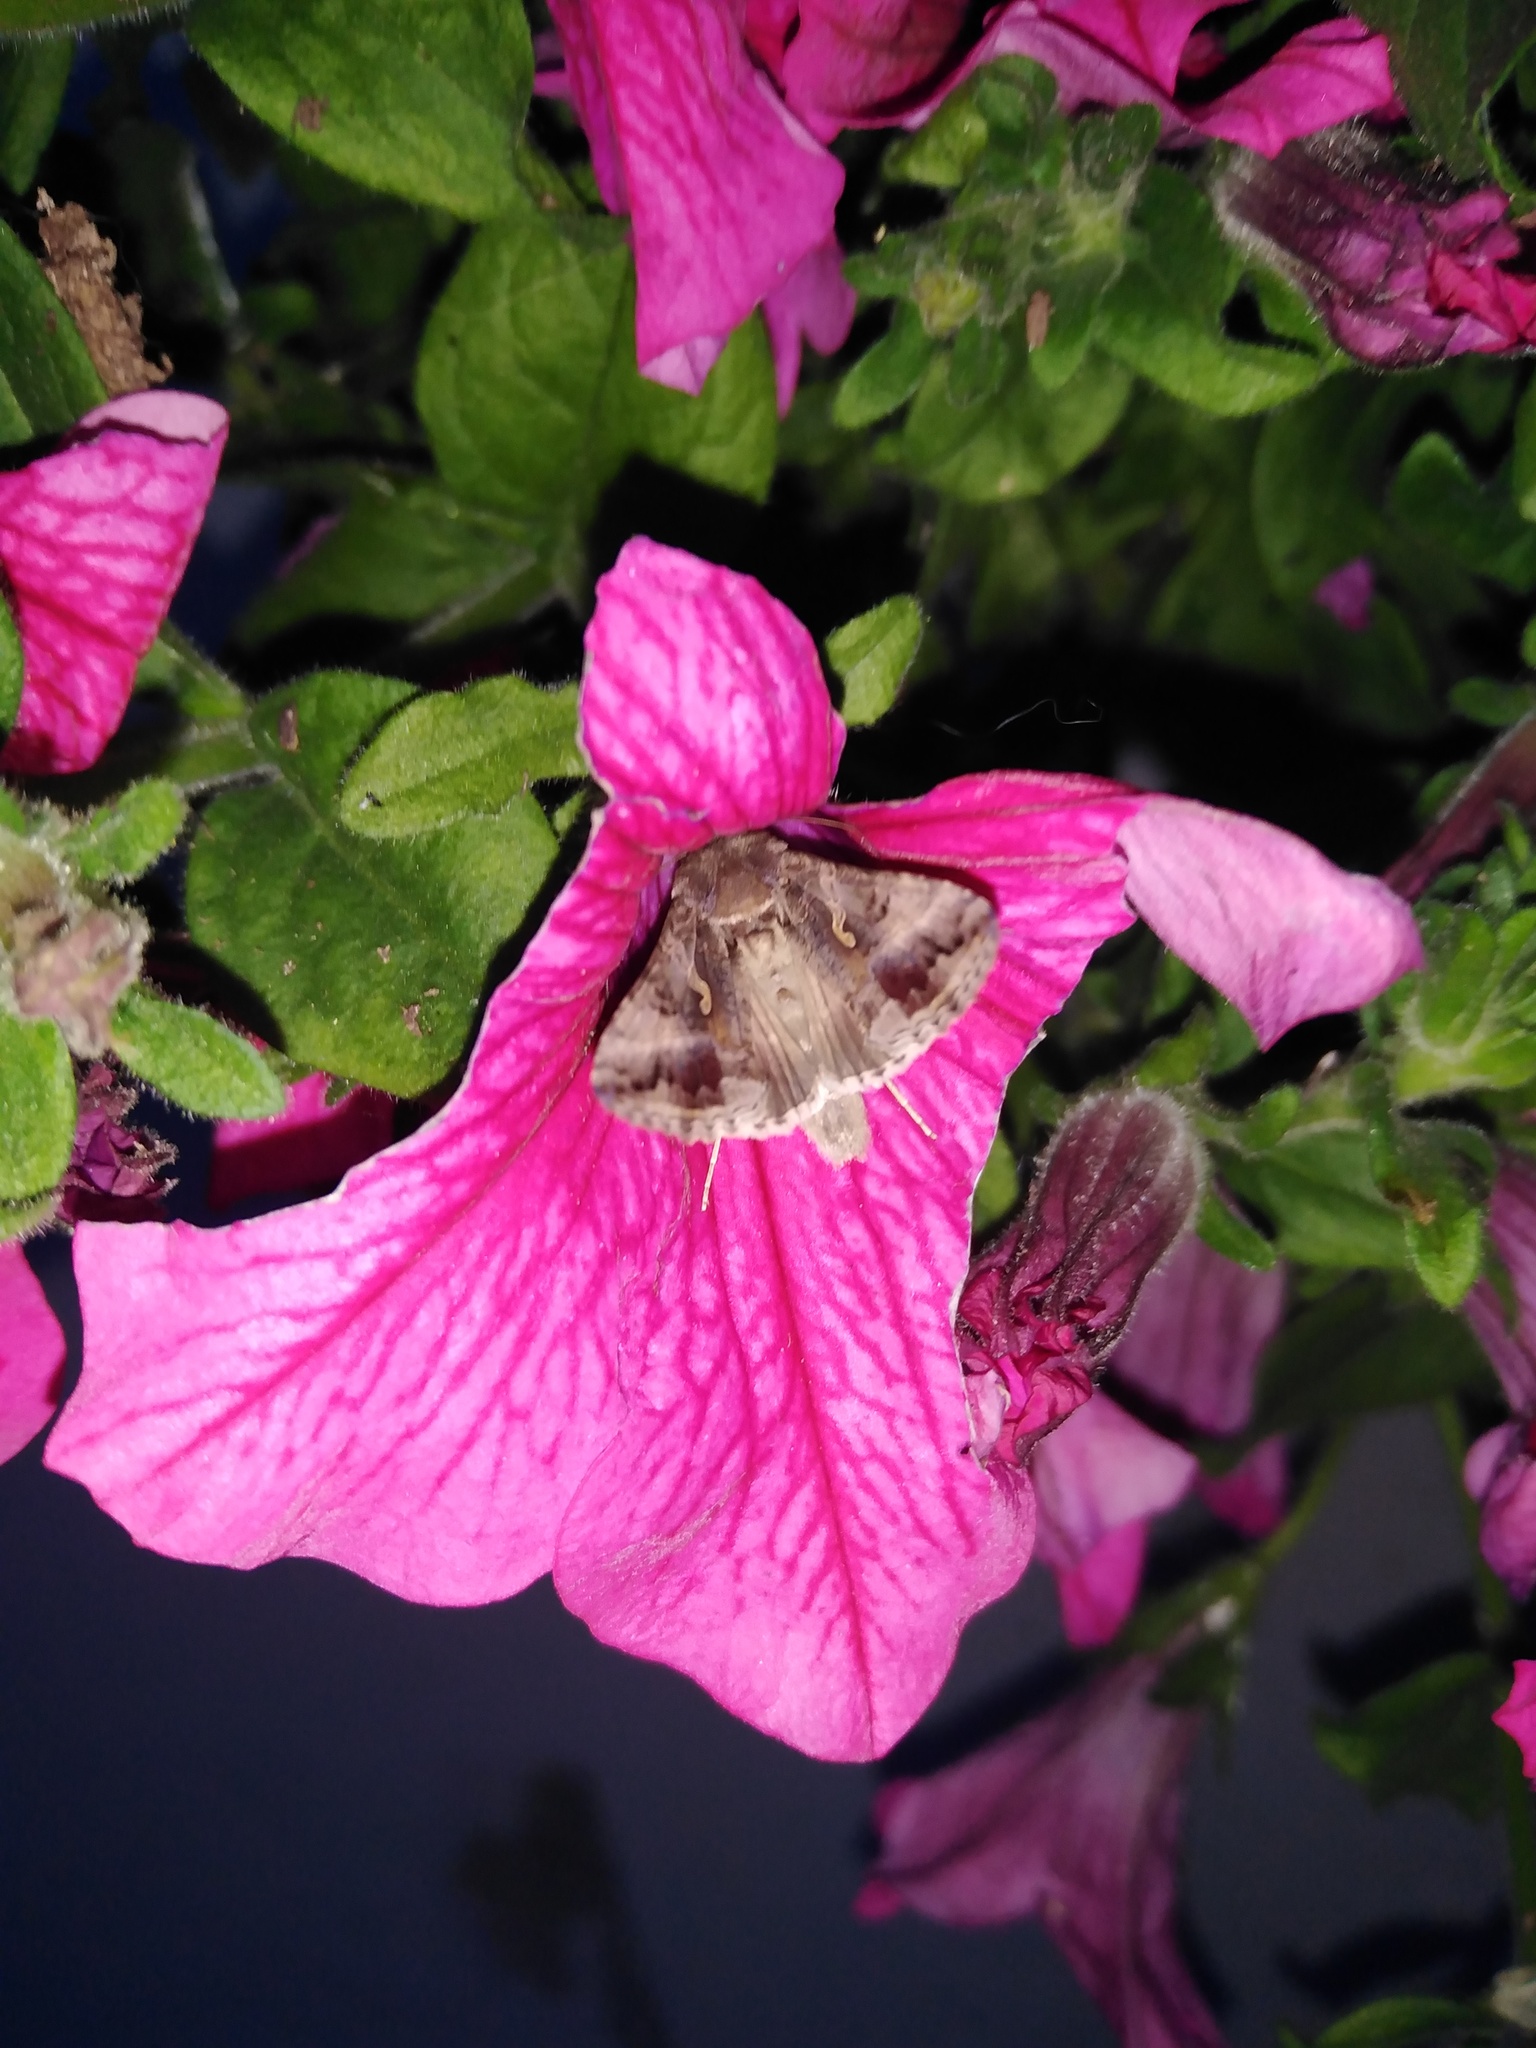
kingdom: Animalia
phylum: Arthropoda
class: Insecta
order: Lepidoptera
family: Noctuidae
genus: Autographa
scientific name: Autographa gamma
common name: Silver y
